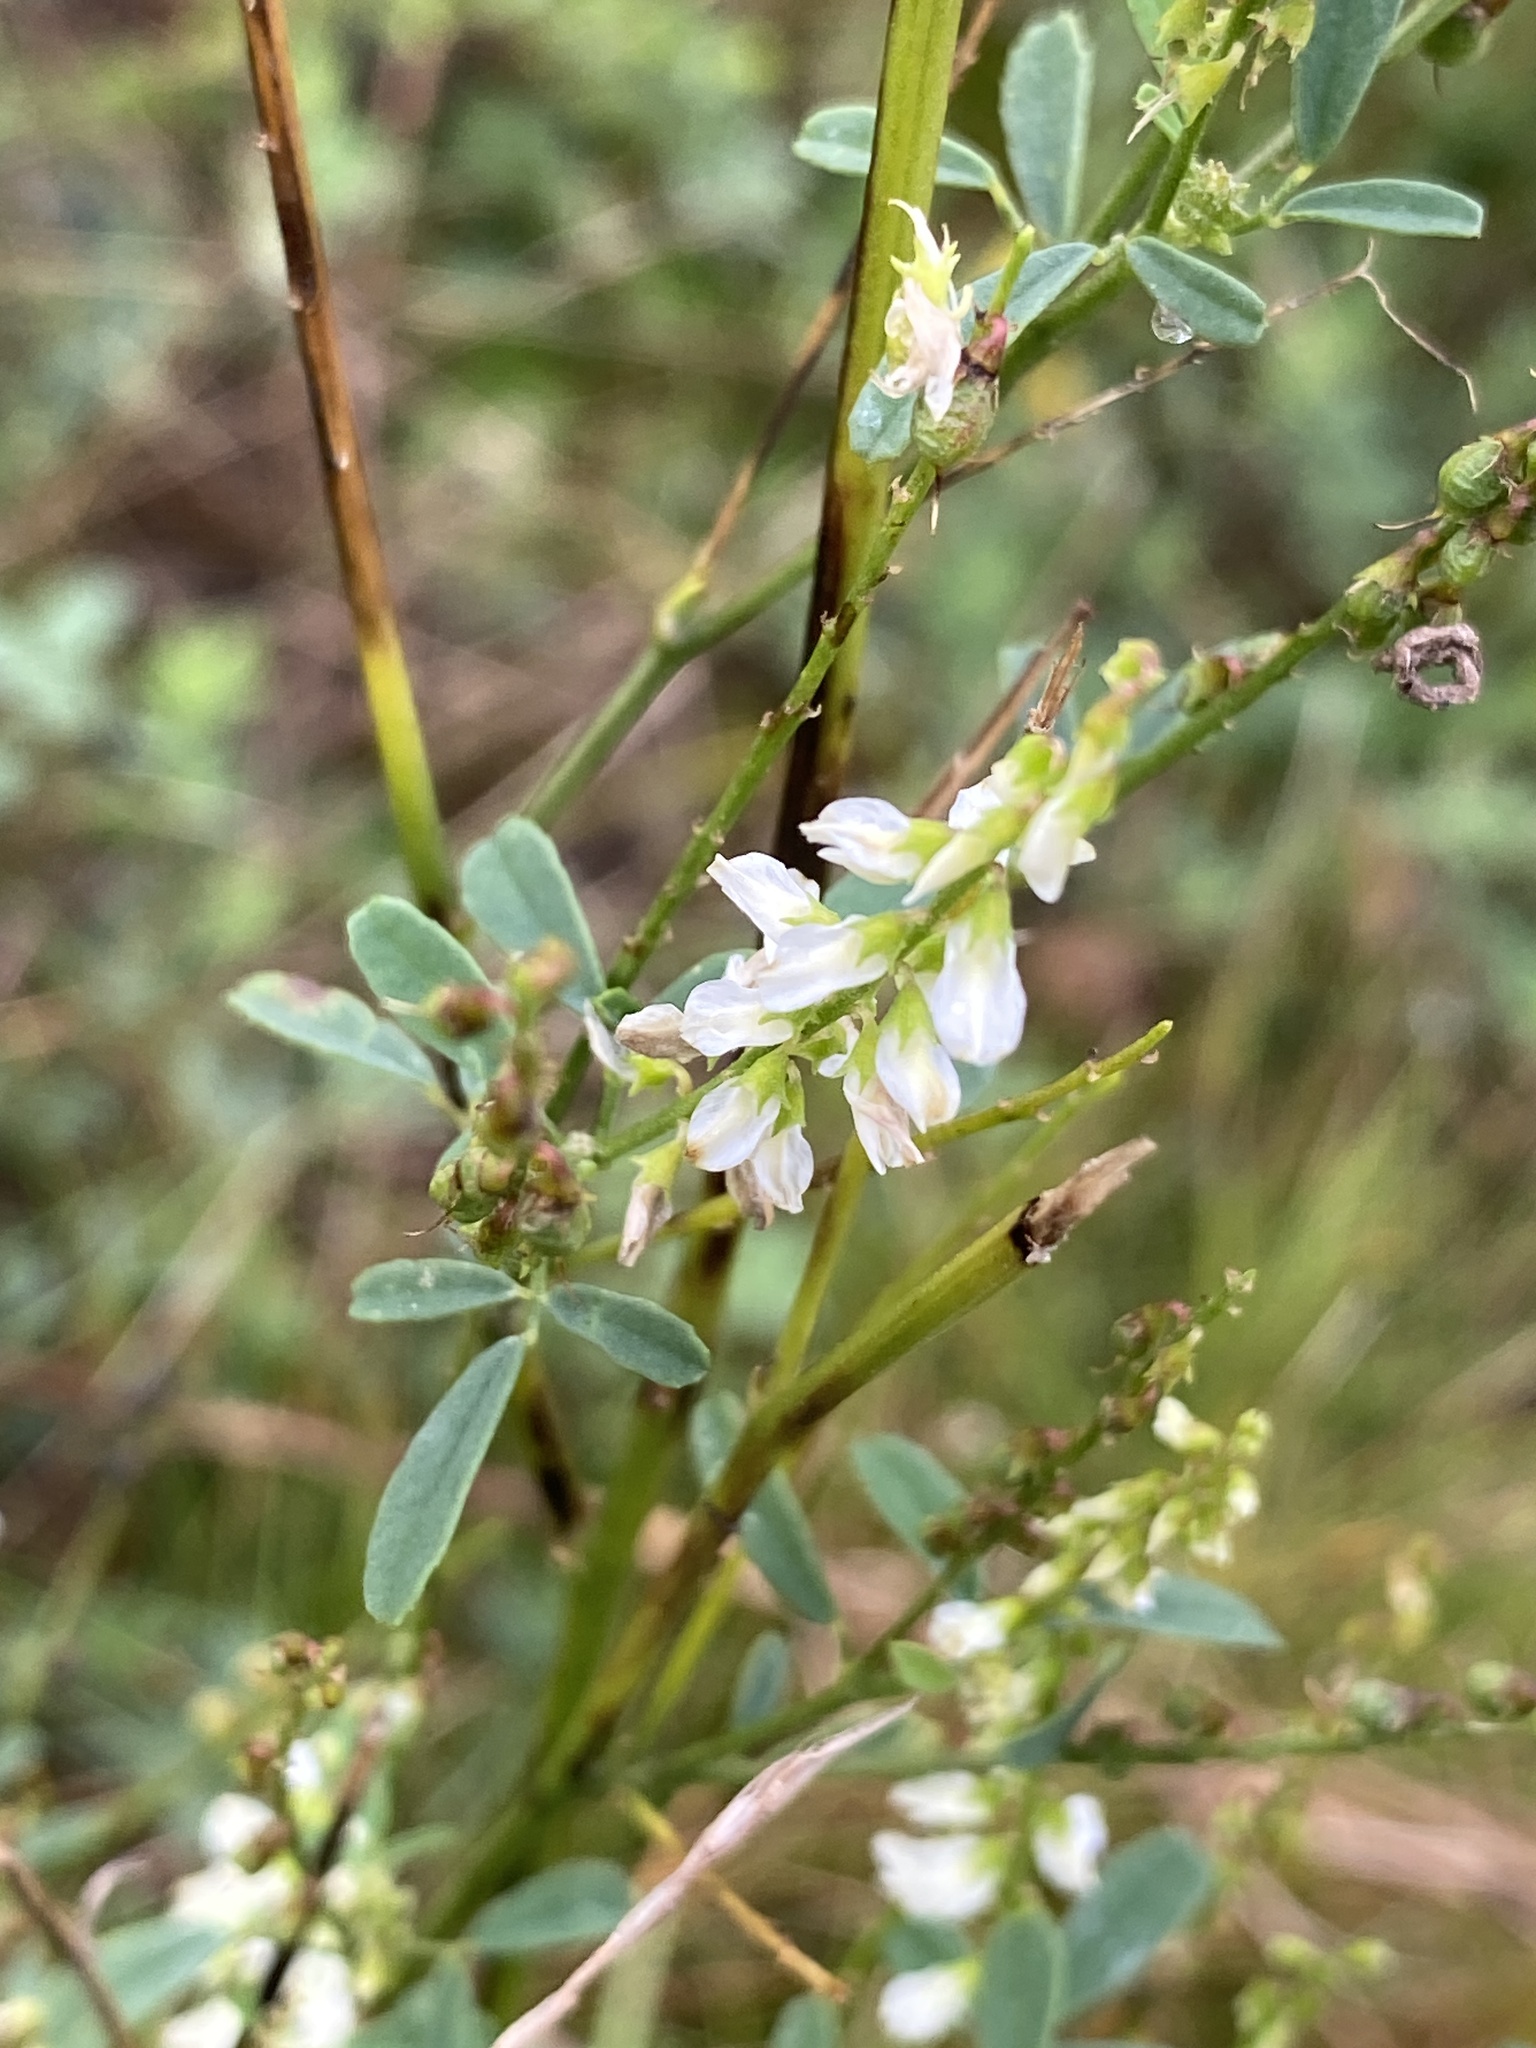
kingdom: Plantae
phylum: Tracheophyta
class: Magnoliopsida
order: Fabales
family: Fabaceae
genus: Melilotus
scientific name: Melilotus albus
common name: White melilot
